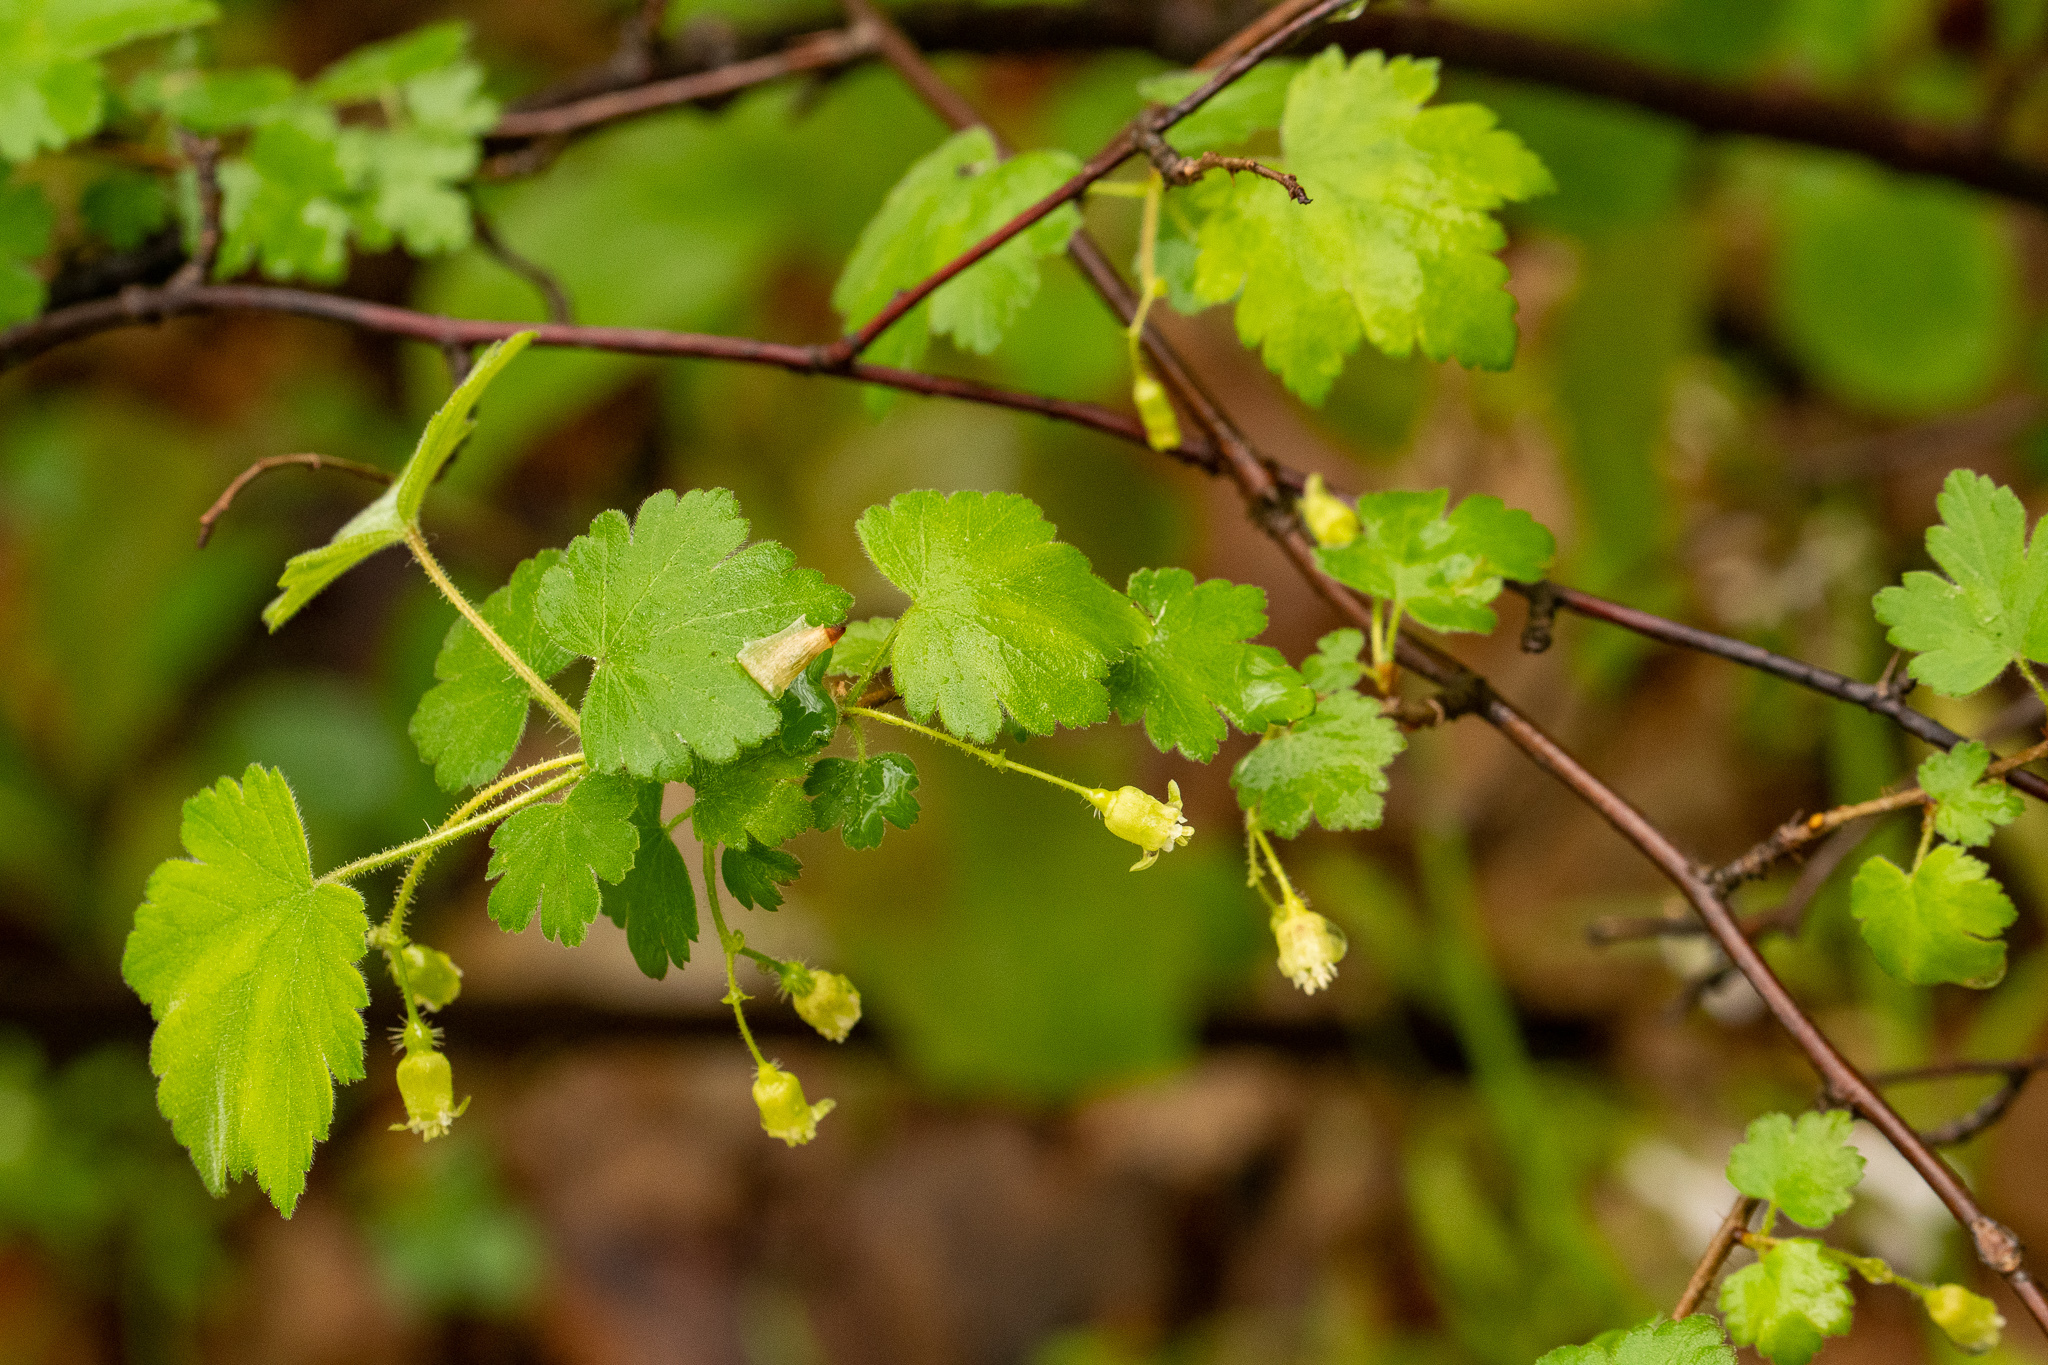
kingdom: Plantae
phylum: Tracheophyta
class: Magnoliopsida
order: Saxifragales
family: Grossulariaceae
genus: Ribes
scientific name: Ribes cynosbati
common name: American gooseberry
